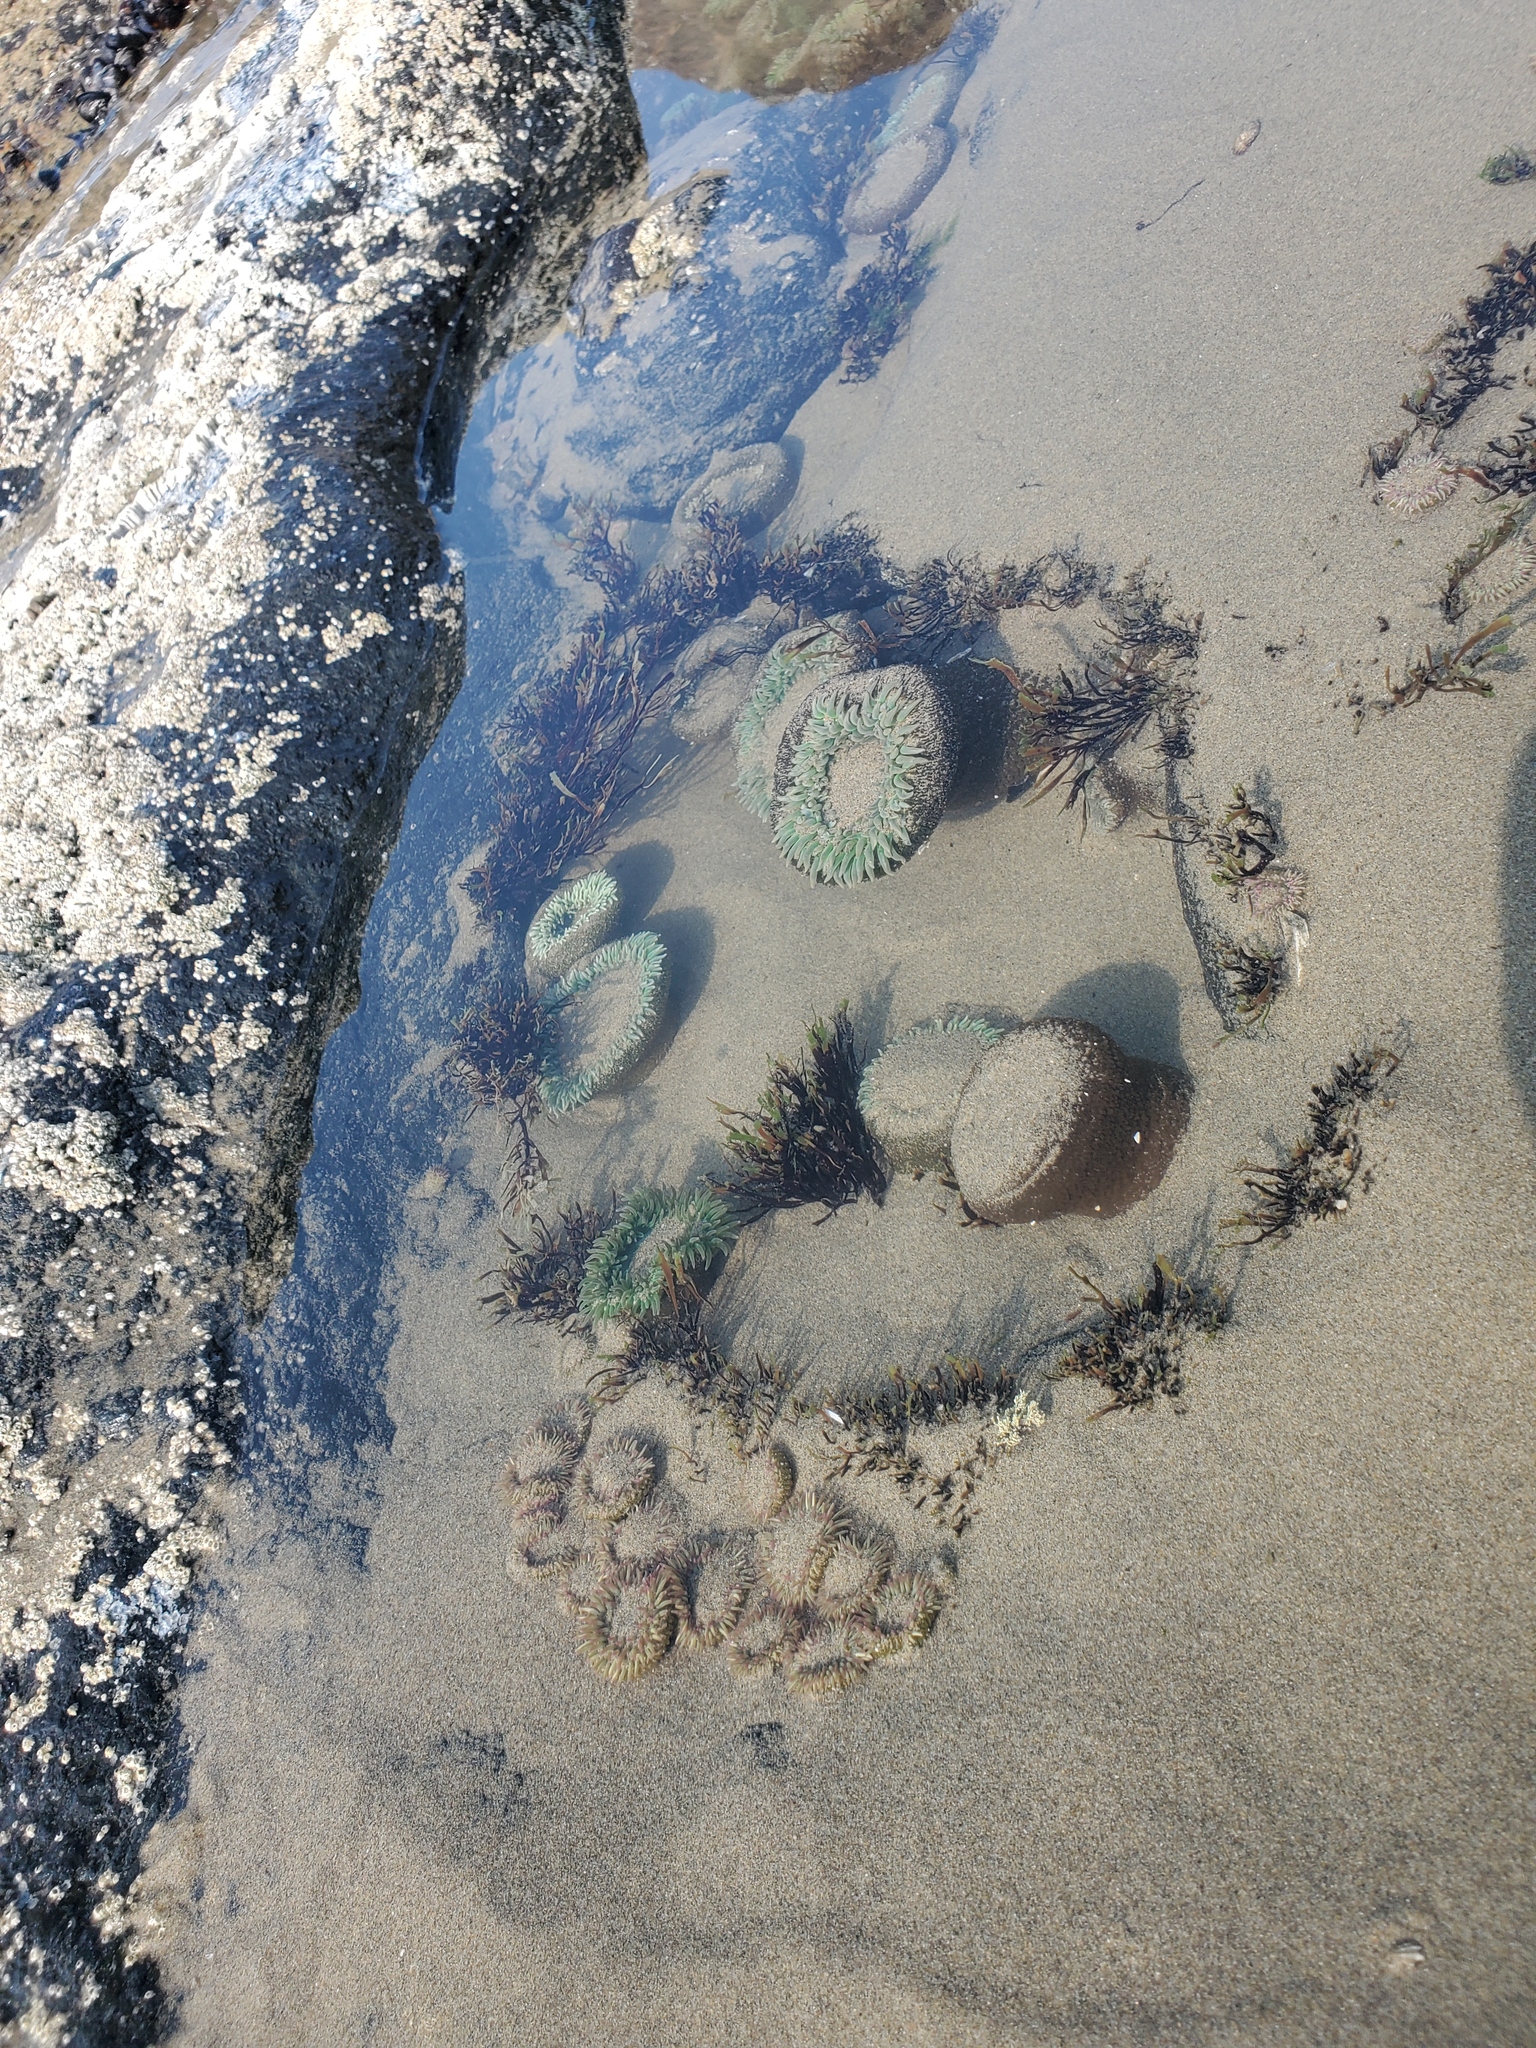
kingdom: Animalia
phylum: Cnidaria
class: Anthozoa
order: Actiniaria
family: Actiniidae
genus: Anthopleura
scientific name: Anthopleura xanthogrammica
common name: Giant green anemone
